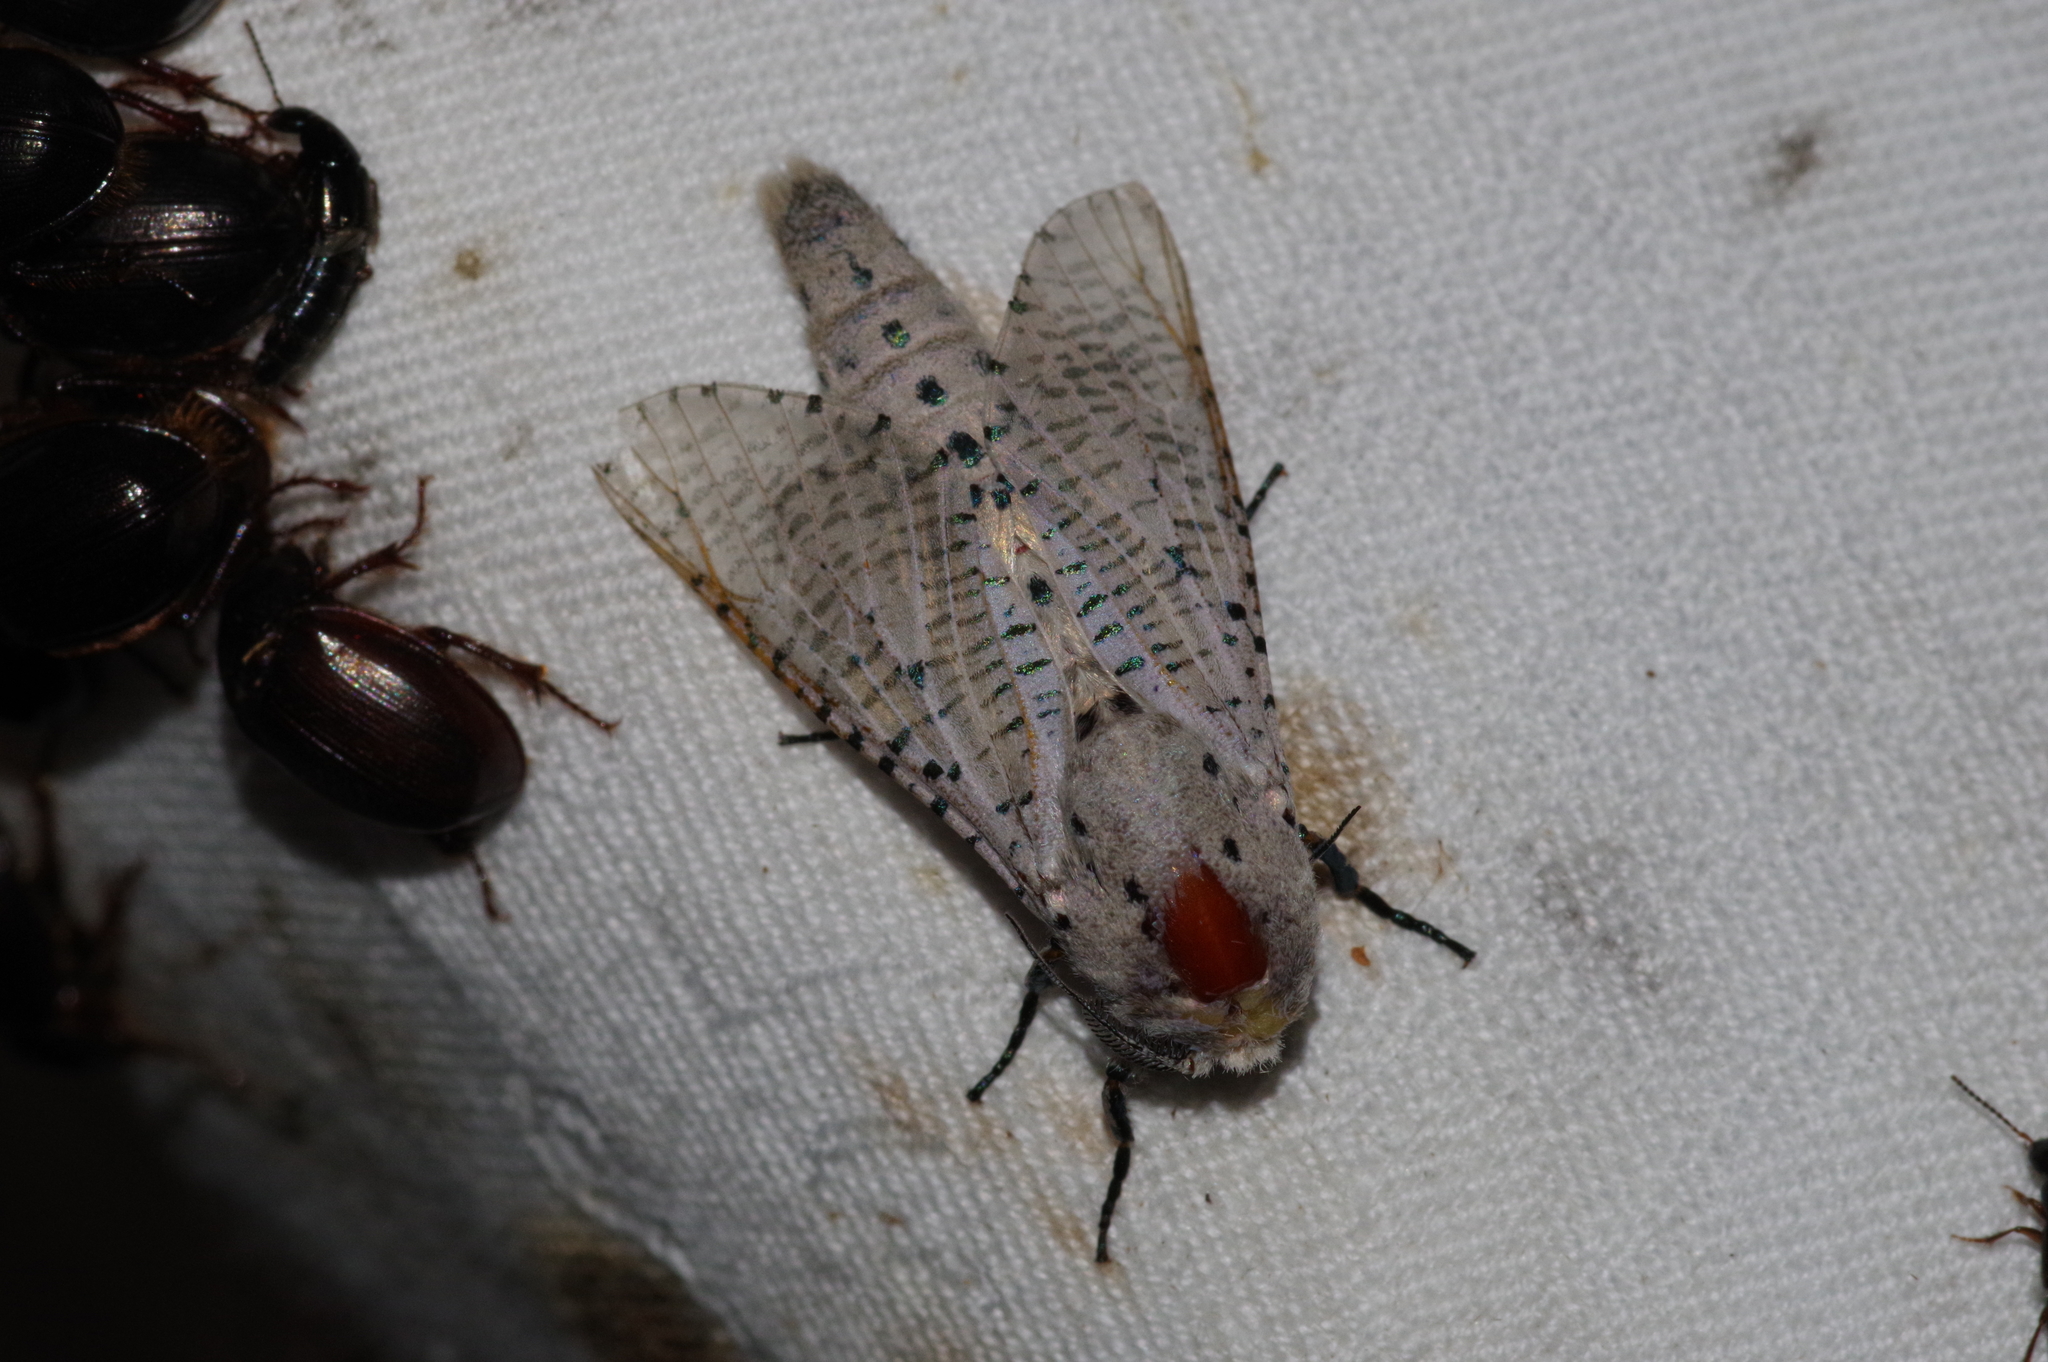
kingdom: Animalia
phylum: Arthropoda
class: Insecta
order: Lepidoptera
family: Cossidae
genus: Orientozeuzera
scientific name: Orientozeuzera caudata
